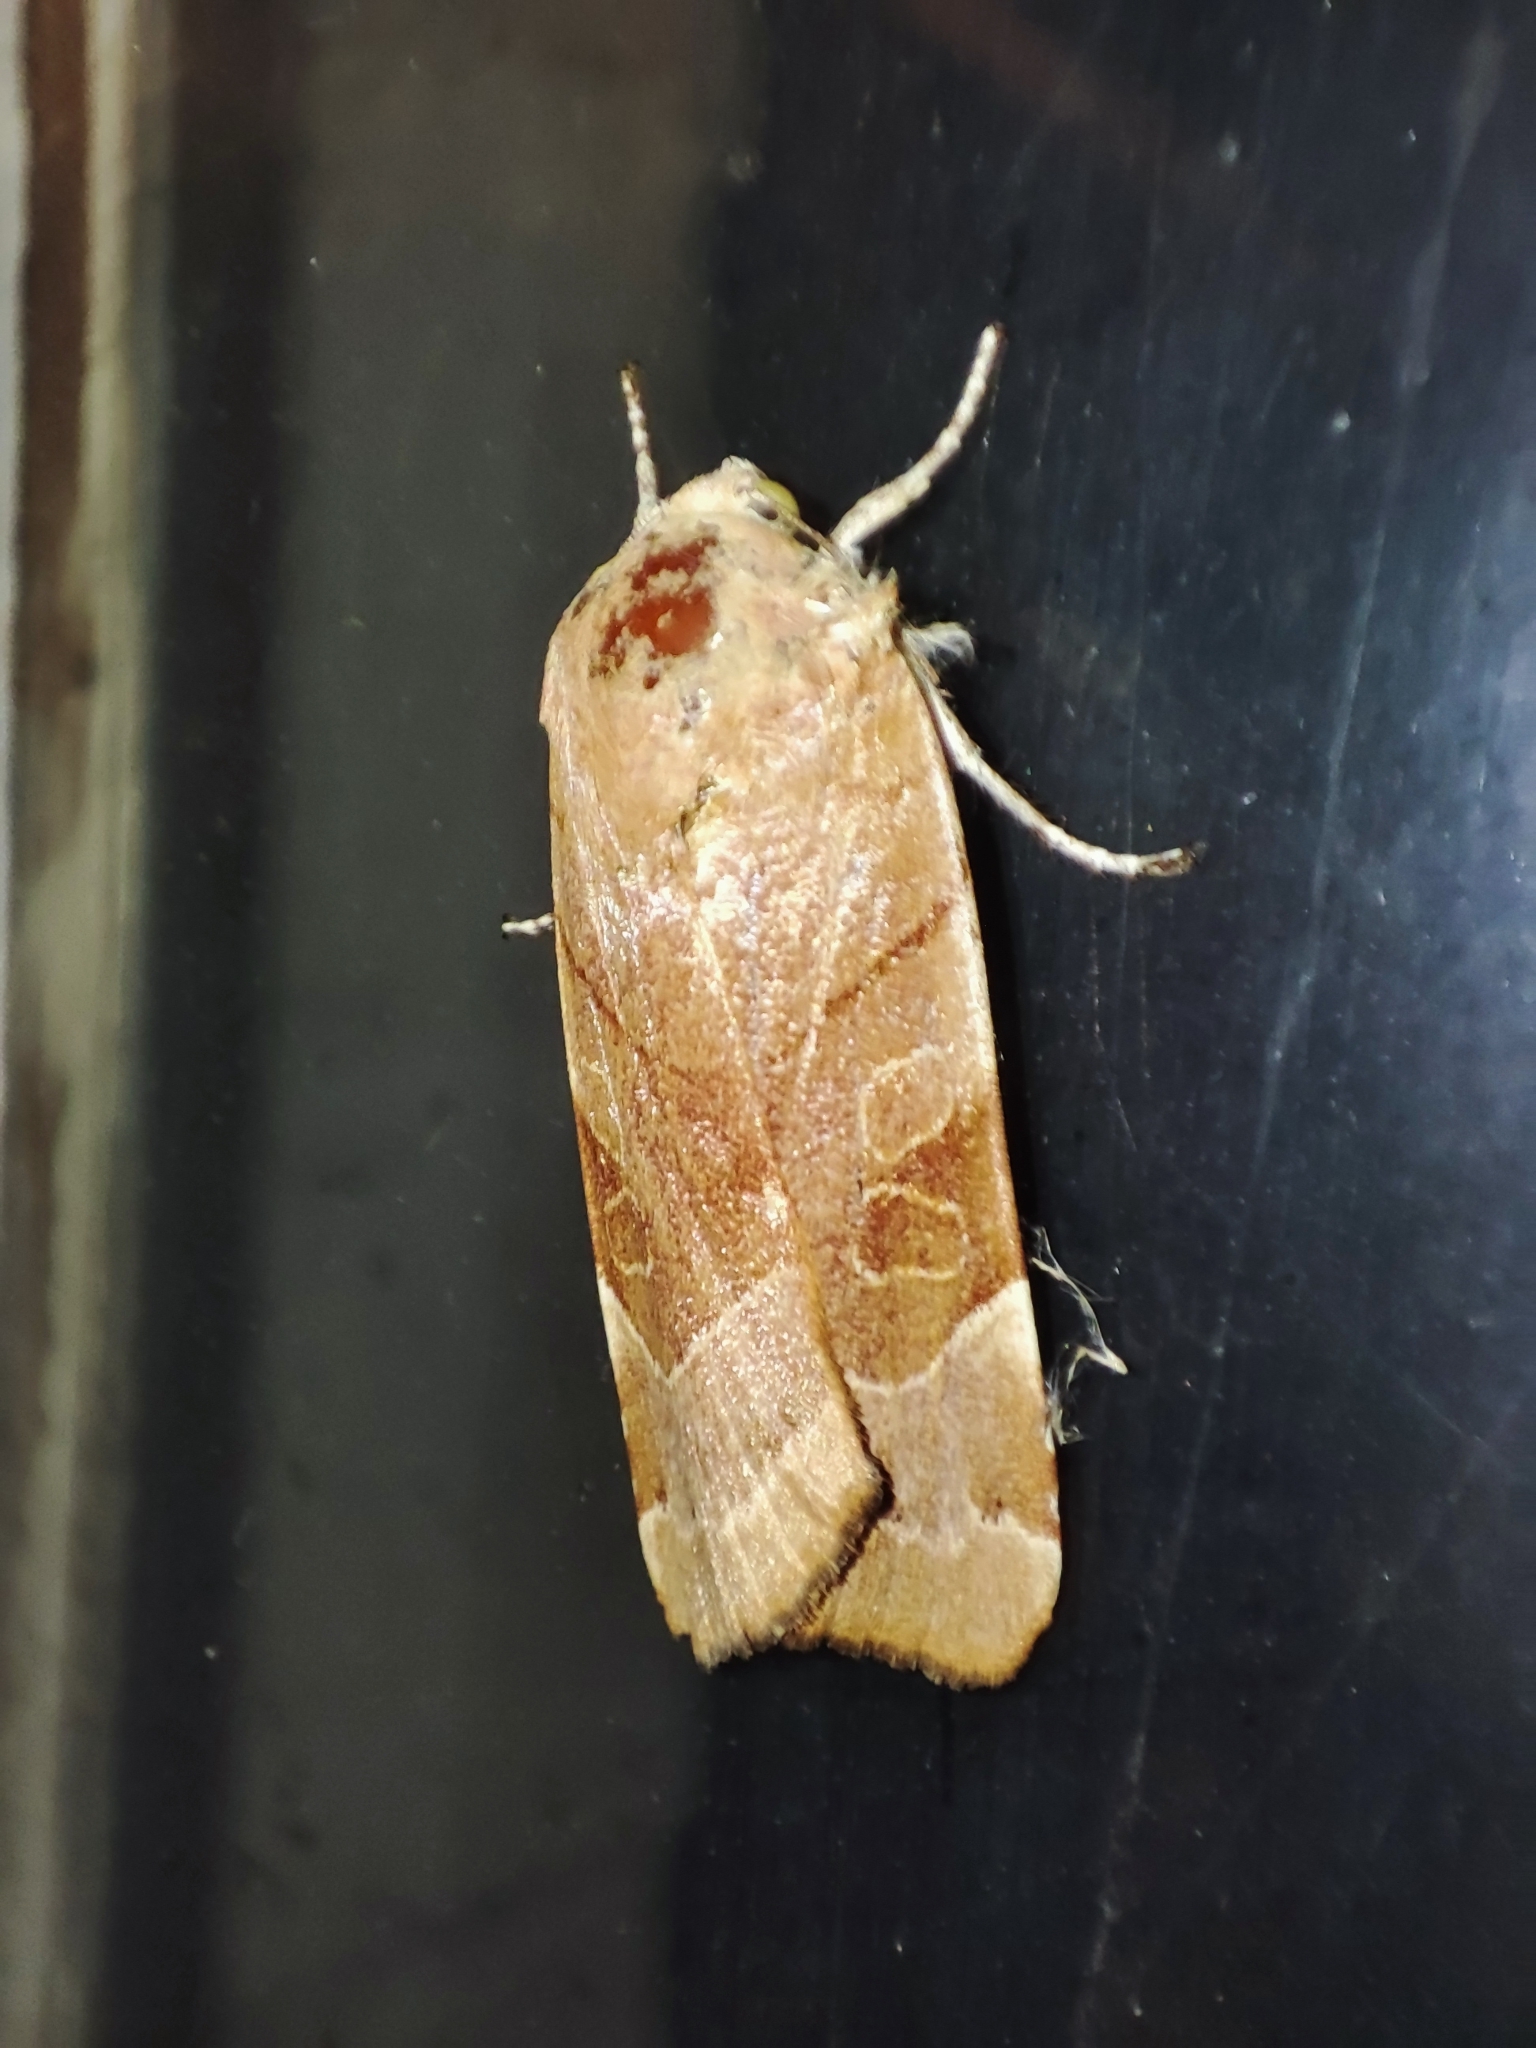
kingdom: Animalia
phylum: Arthropoda
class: Insecta
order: Lepidoptera
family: Noctuidae
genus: Noctua
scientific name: Noctua fimbriata
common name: Broad-bordered yellow underwing
